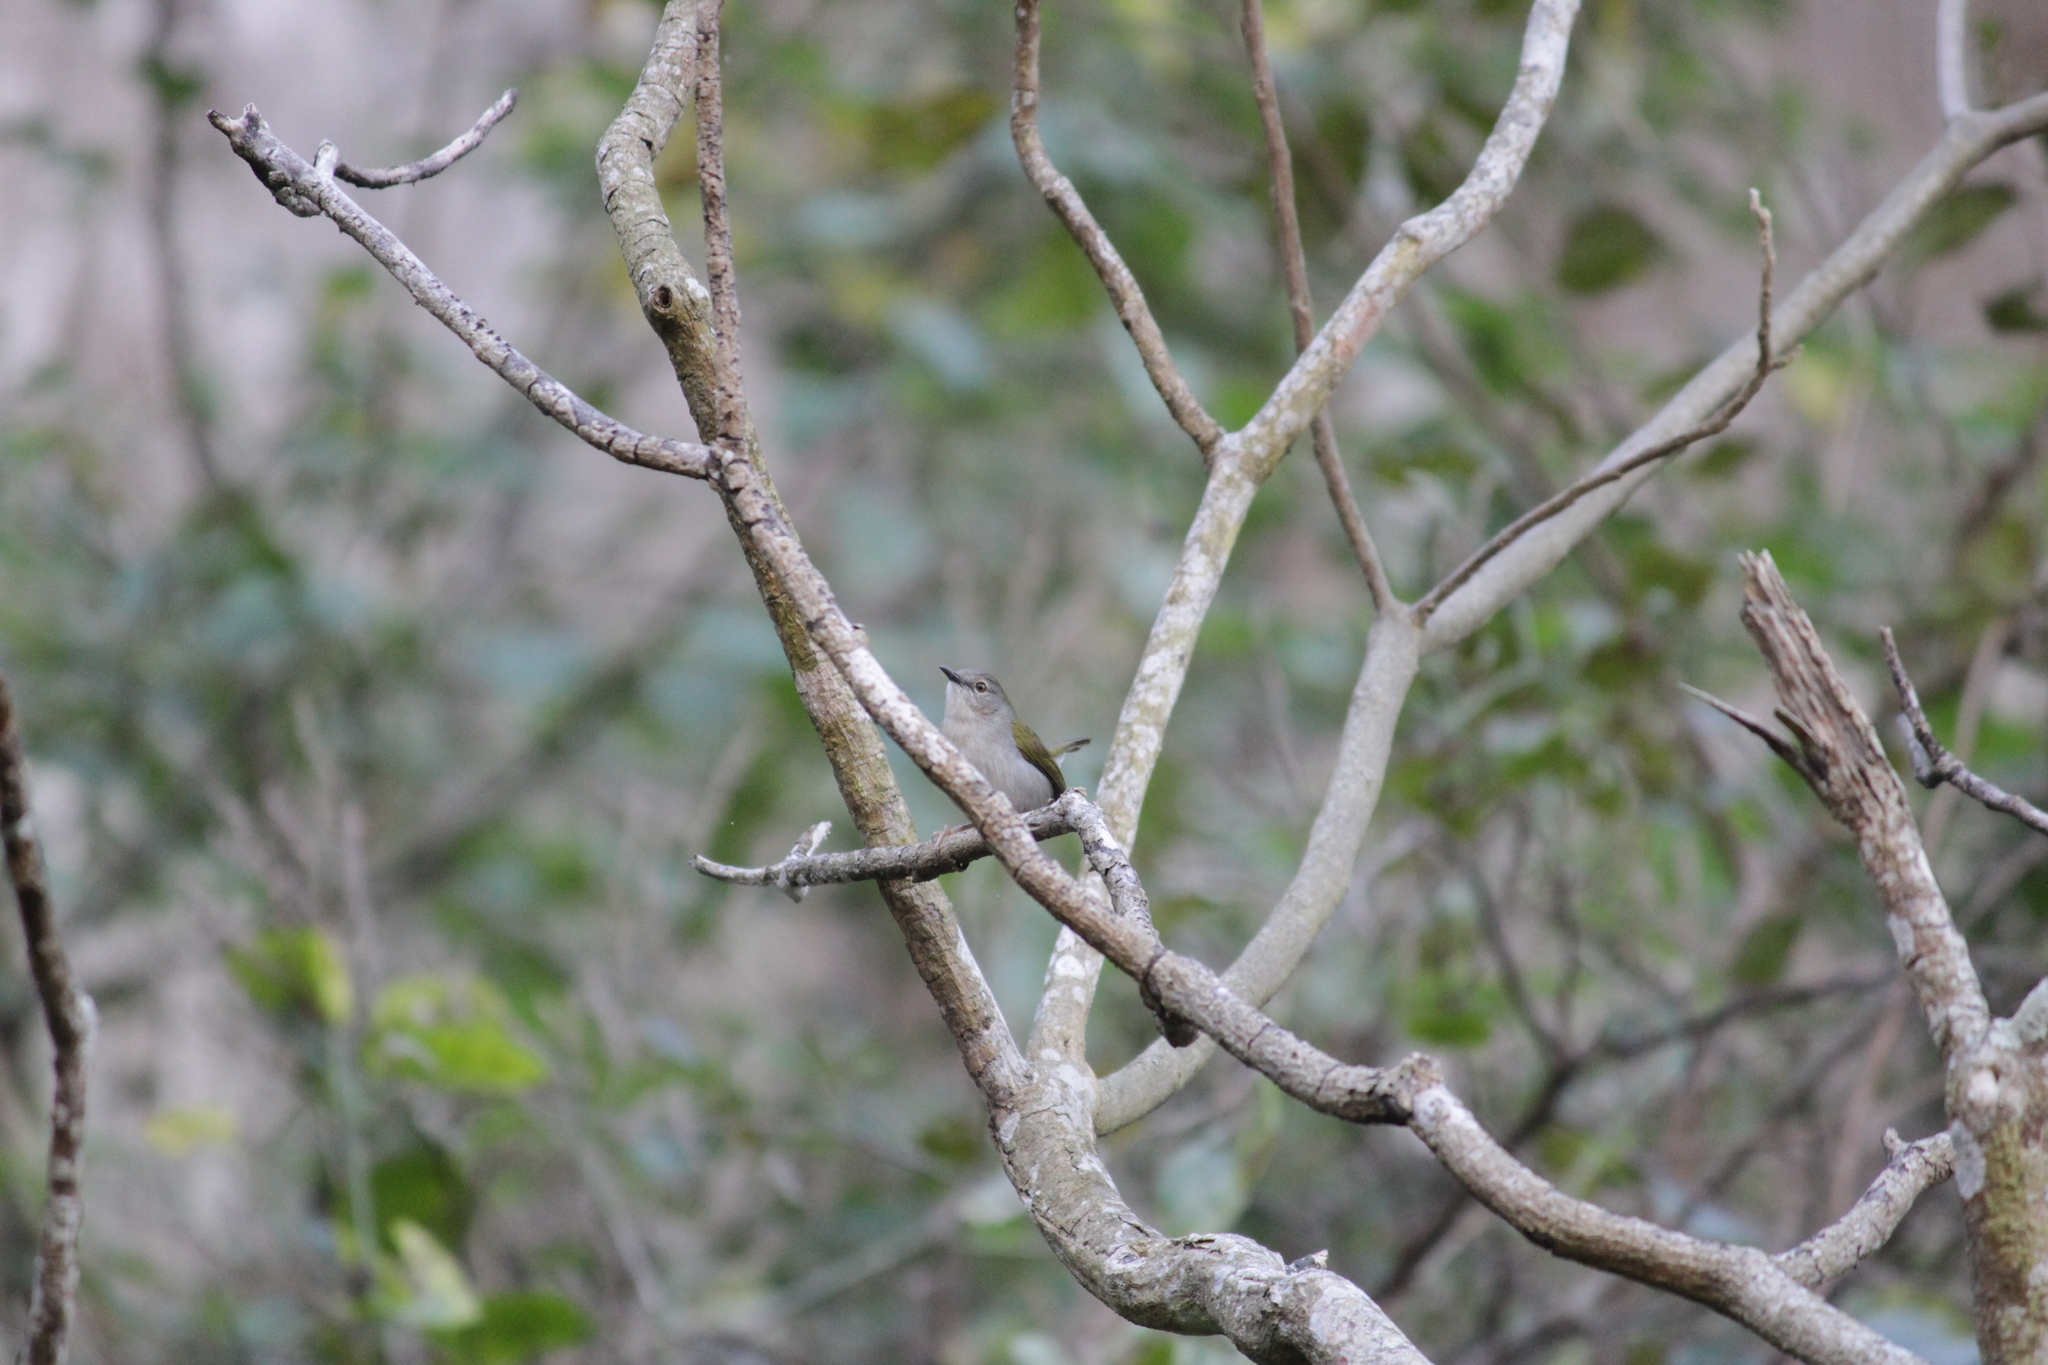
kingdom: Animalia
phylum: Chordata
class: Aves
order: Passeriformes
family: Cisticolidae
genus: Camaroptera
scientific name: Camaroptera brachyura
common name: Green-backed camaroptera
